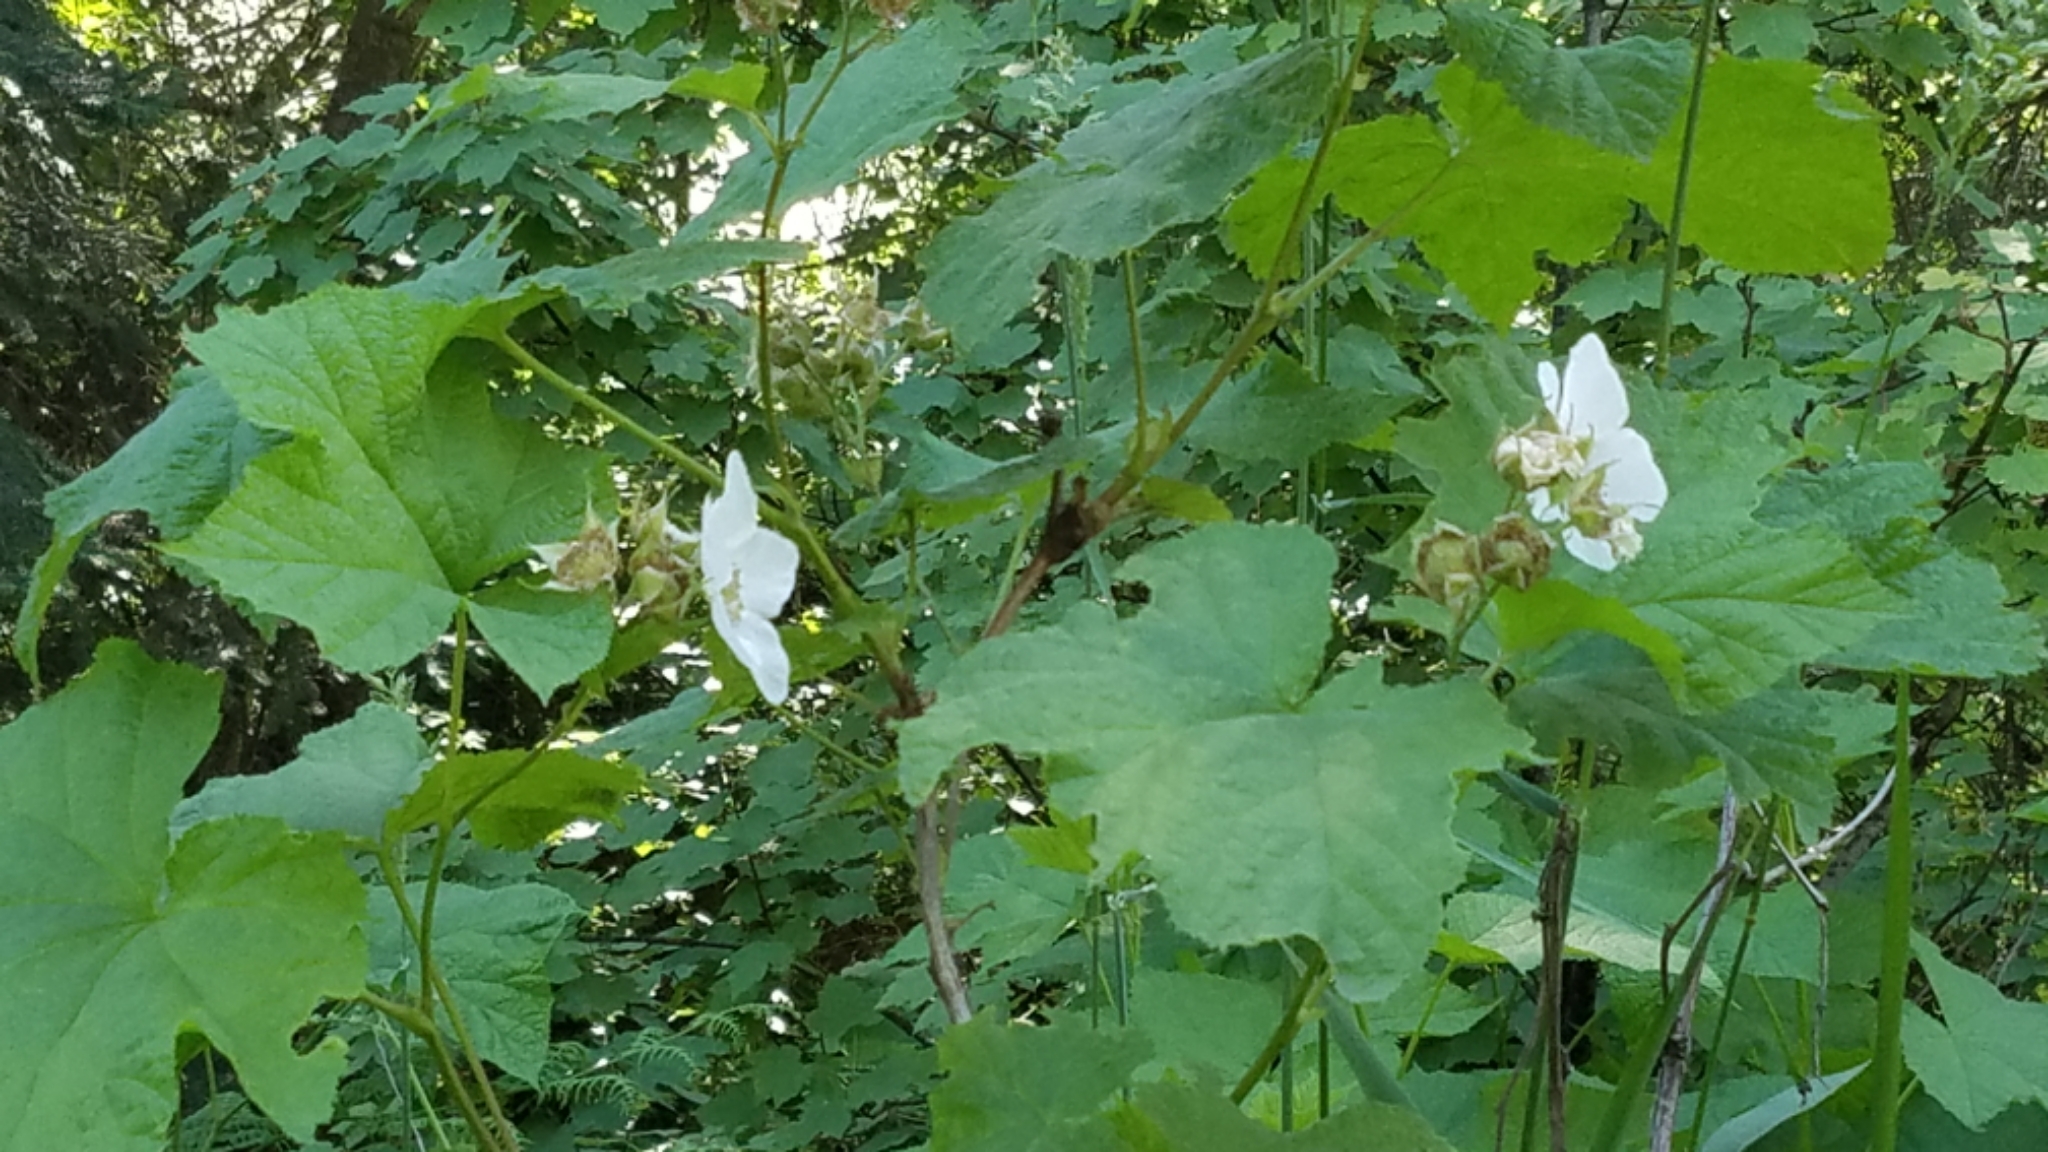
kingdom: Plantae
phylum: Tracheophyta
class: Magnoliopsida
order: Rosales
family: Rosaceae
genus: Rubus
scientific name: Rubus parviflorus
